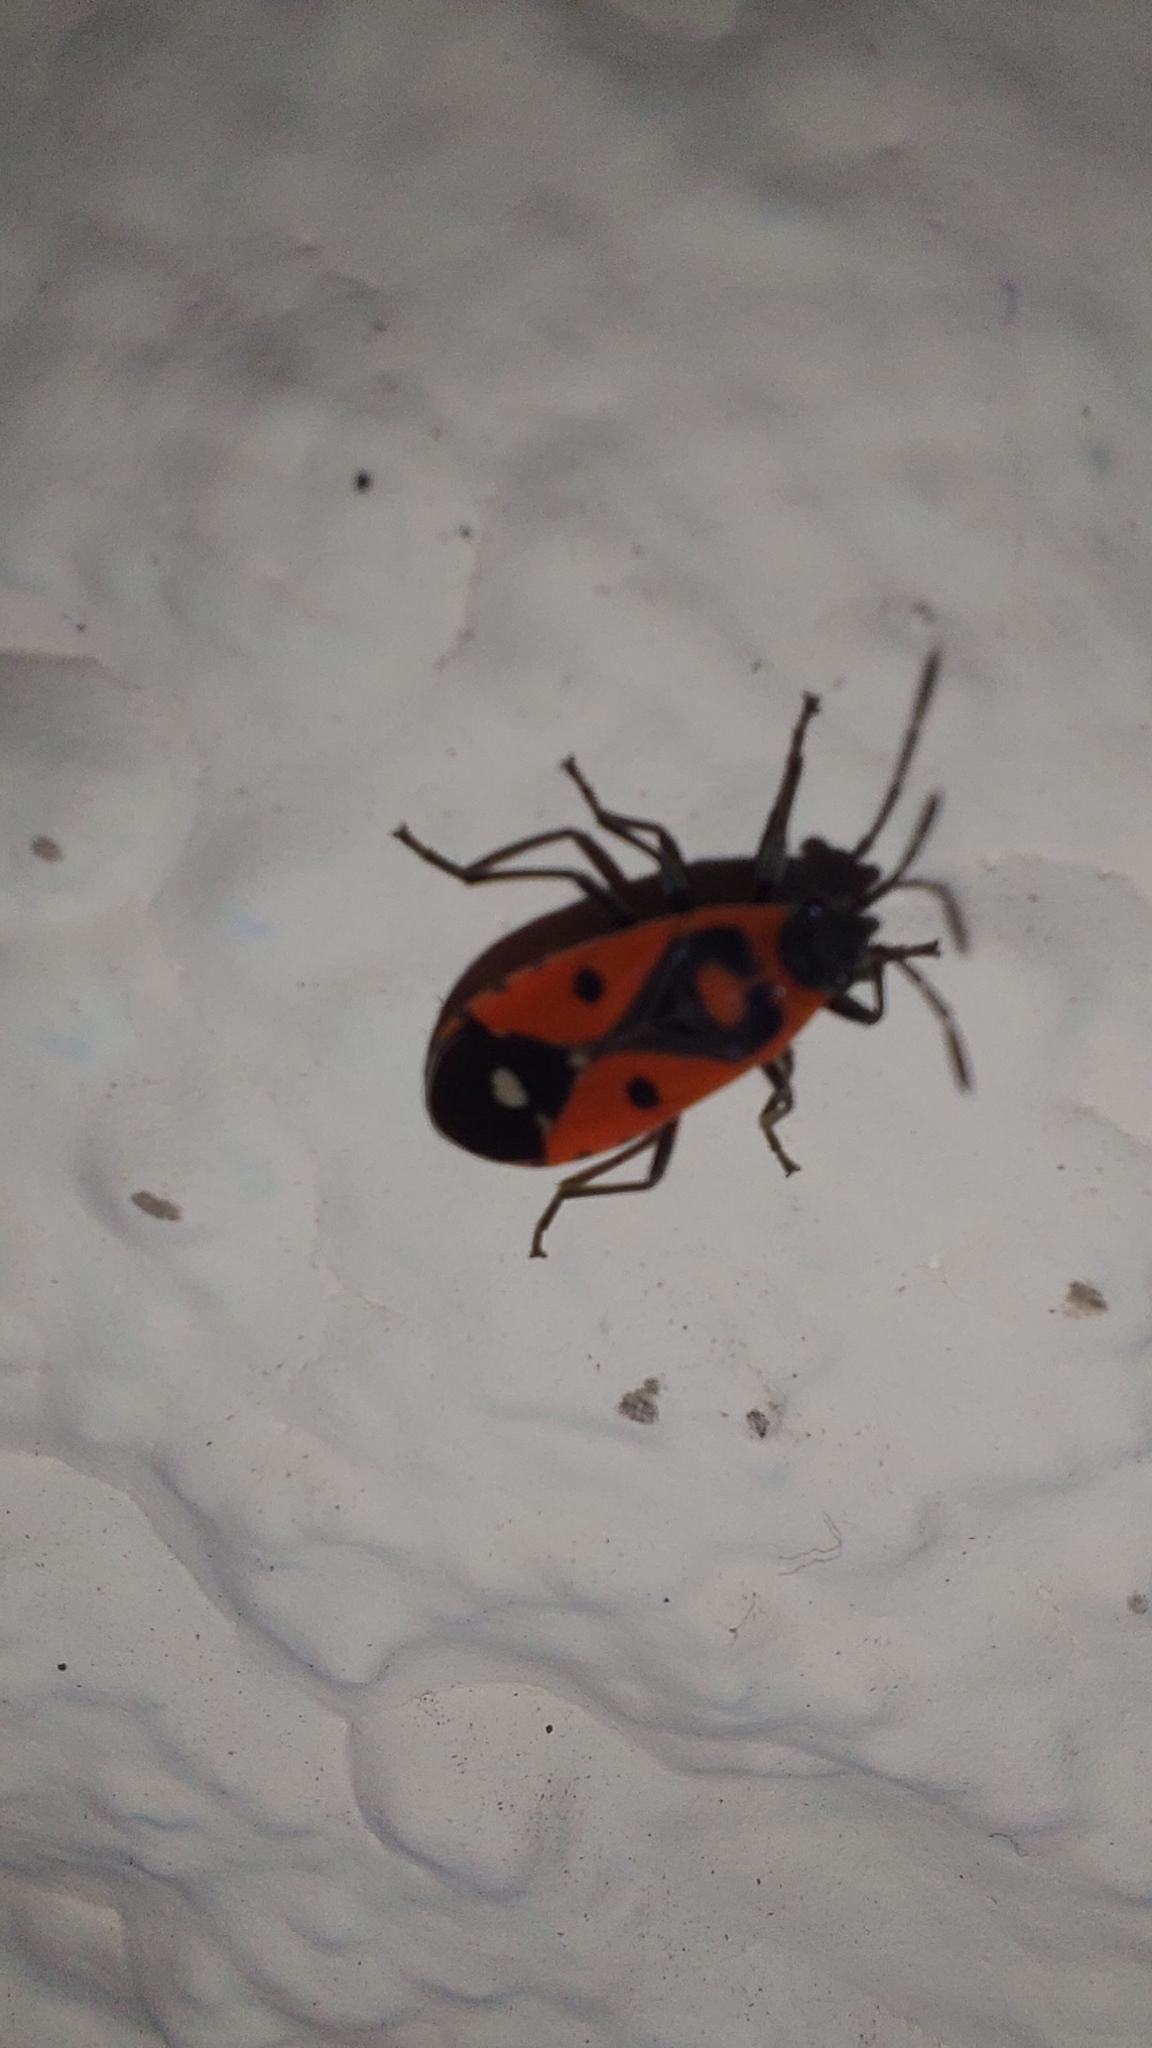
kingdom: Animalia
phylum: Arthropoda
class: Insecta
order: Hemiptera
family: Lygaeidae
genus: Melanocoryphus
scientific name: Melanocoryphus albomaculatus
